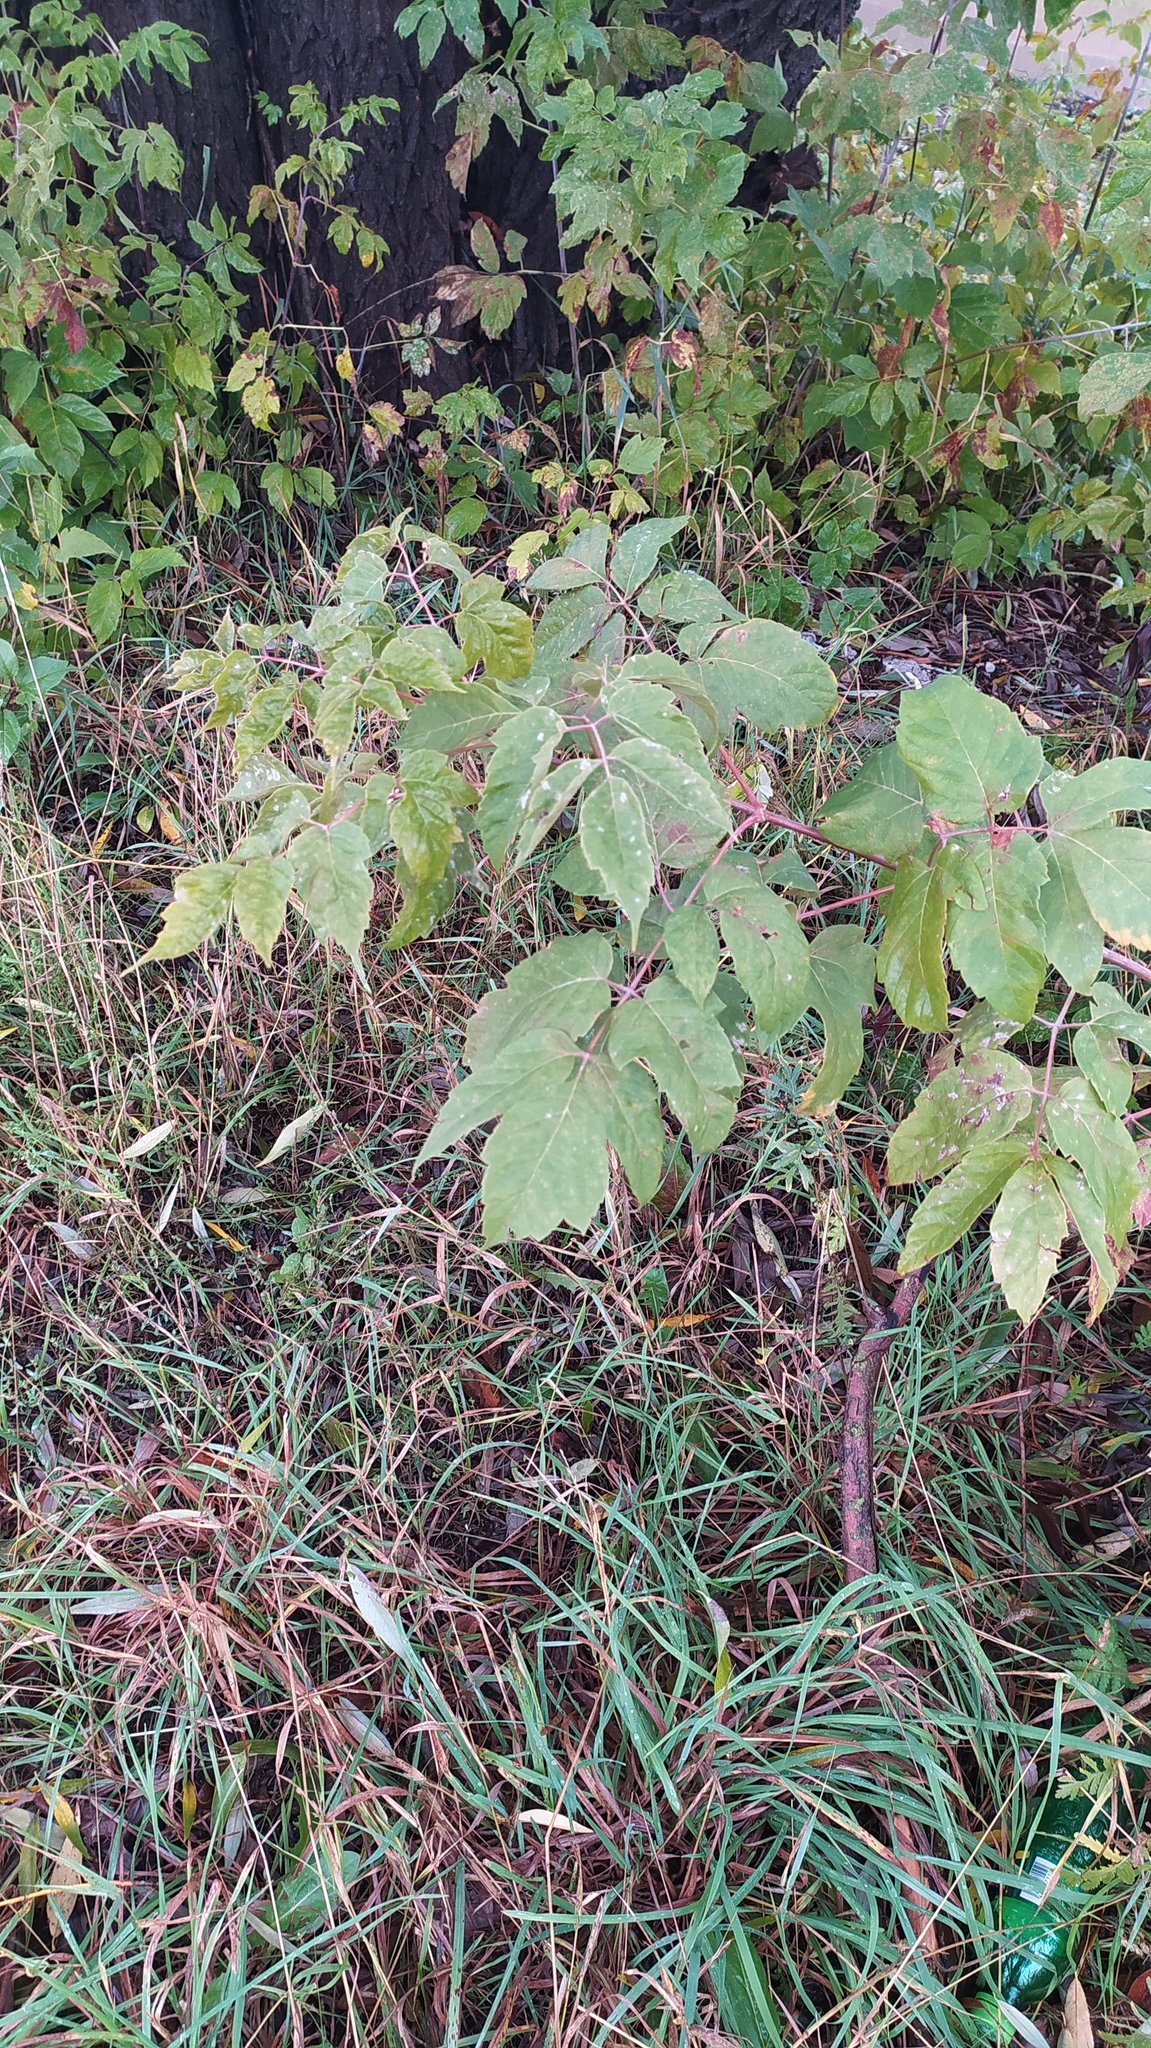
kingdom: Plantae
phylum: Tracheophyta
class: Magnoliopsida
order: Sapindales
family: Sapindaceae
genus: Acer
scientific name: Acer negundo
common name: Ashleaf maple
